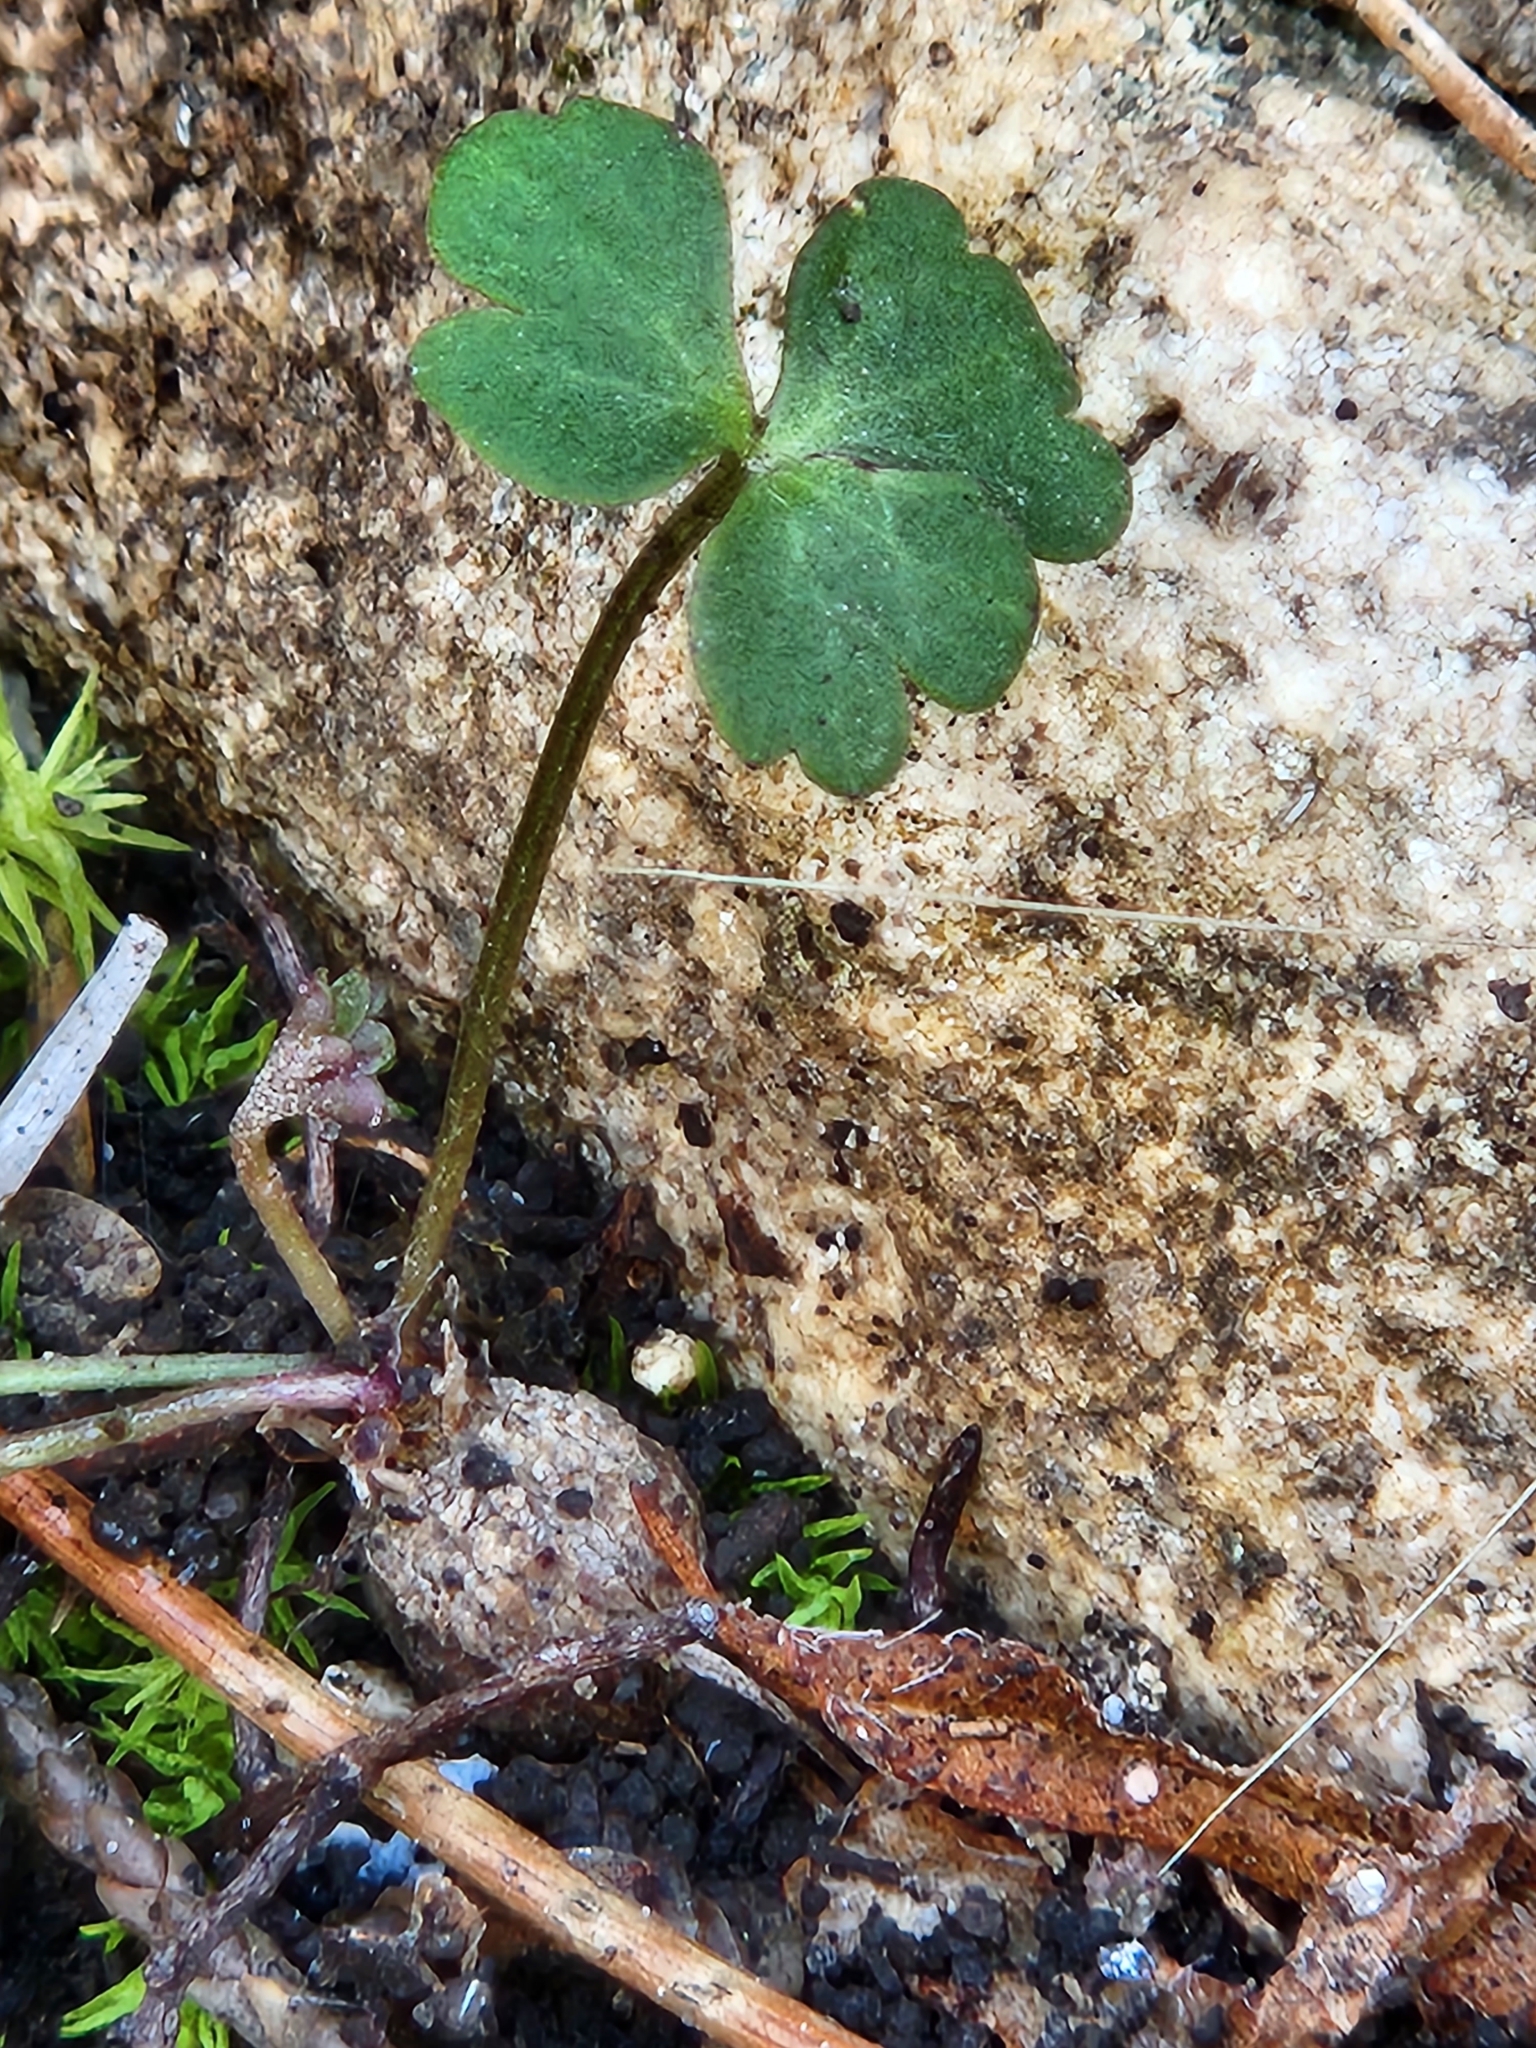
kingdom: Plantae
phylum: Tracheophyta
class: Magnoliopsida
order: Ranunculales
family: Ranunculaceae
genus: Anemone
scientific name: Anemone edwardsiana
